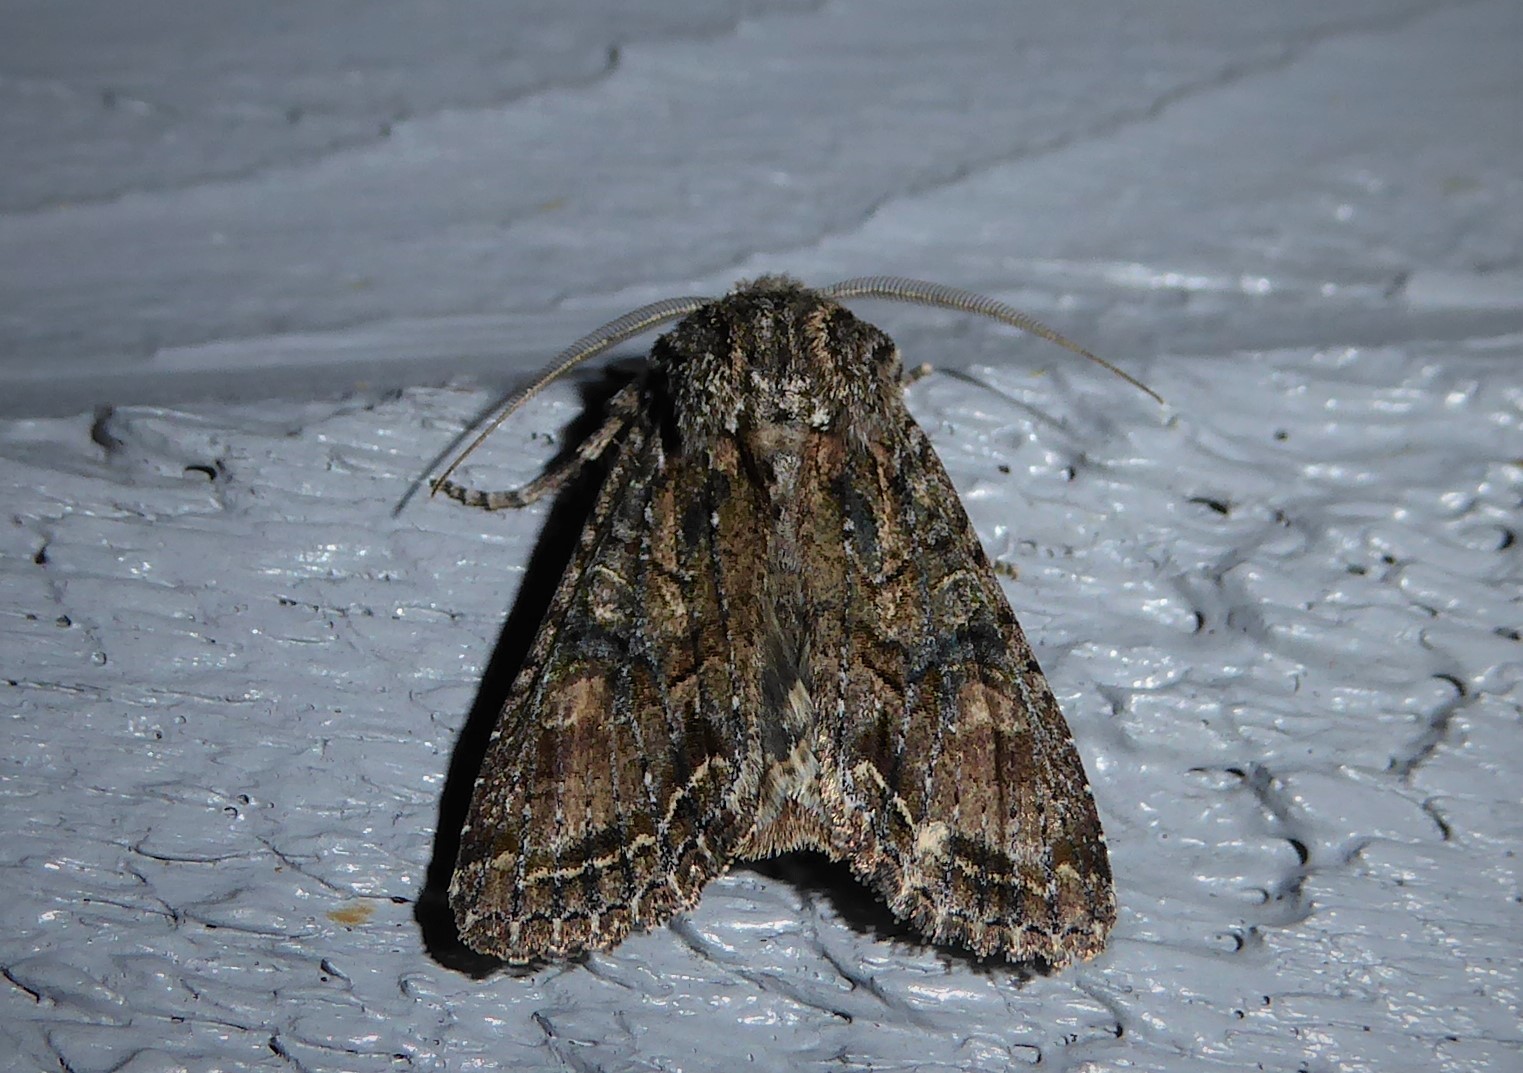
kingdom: Animalia
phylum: Arthropoda
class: Insecta
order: Lepidoptera
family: Noctuidae
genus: Ichneutica
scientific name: Ichneutica mutans
